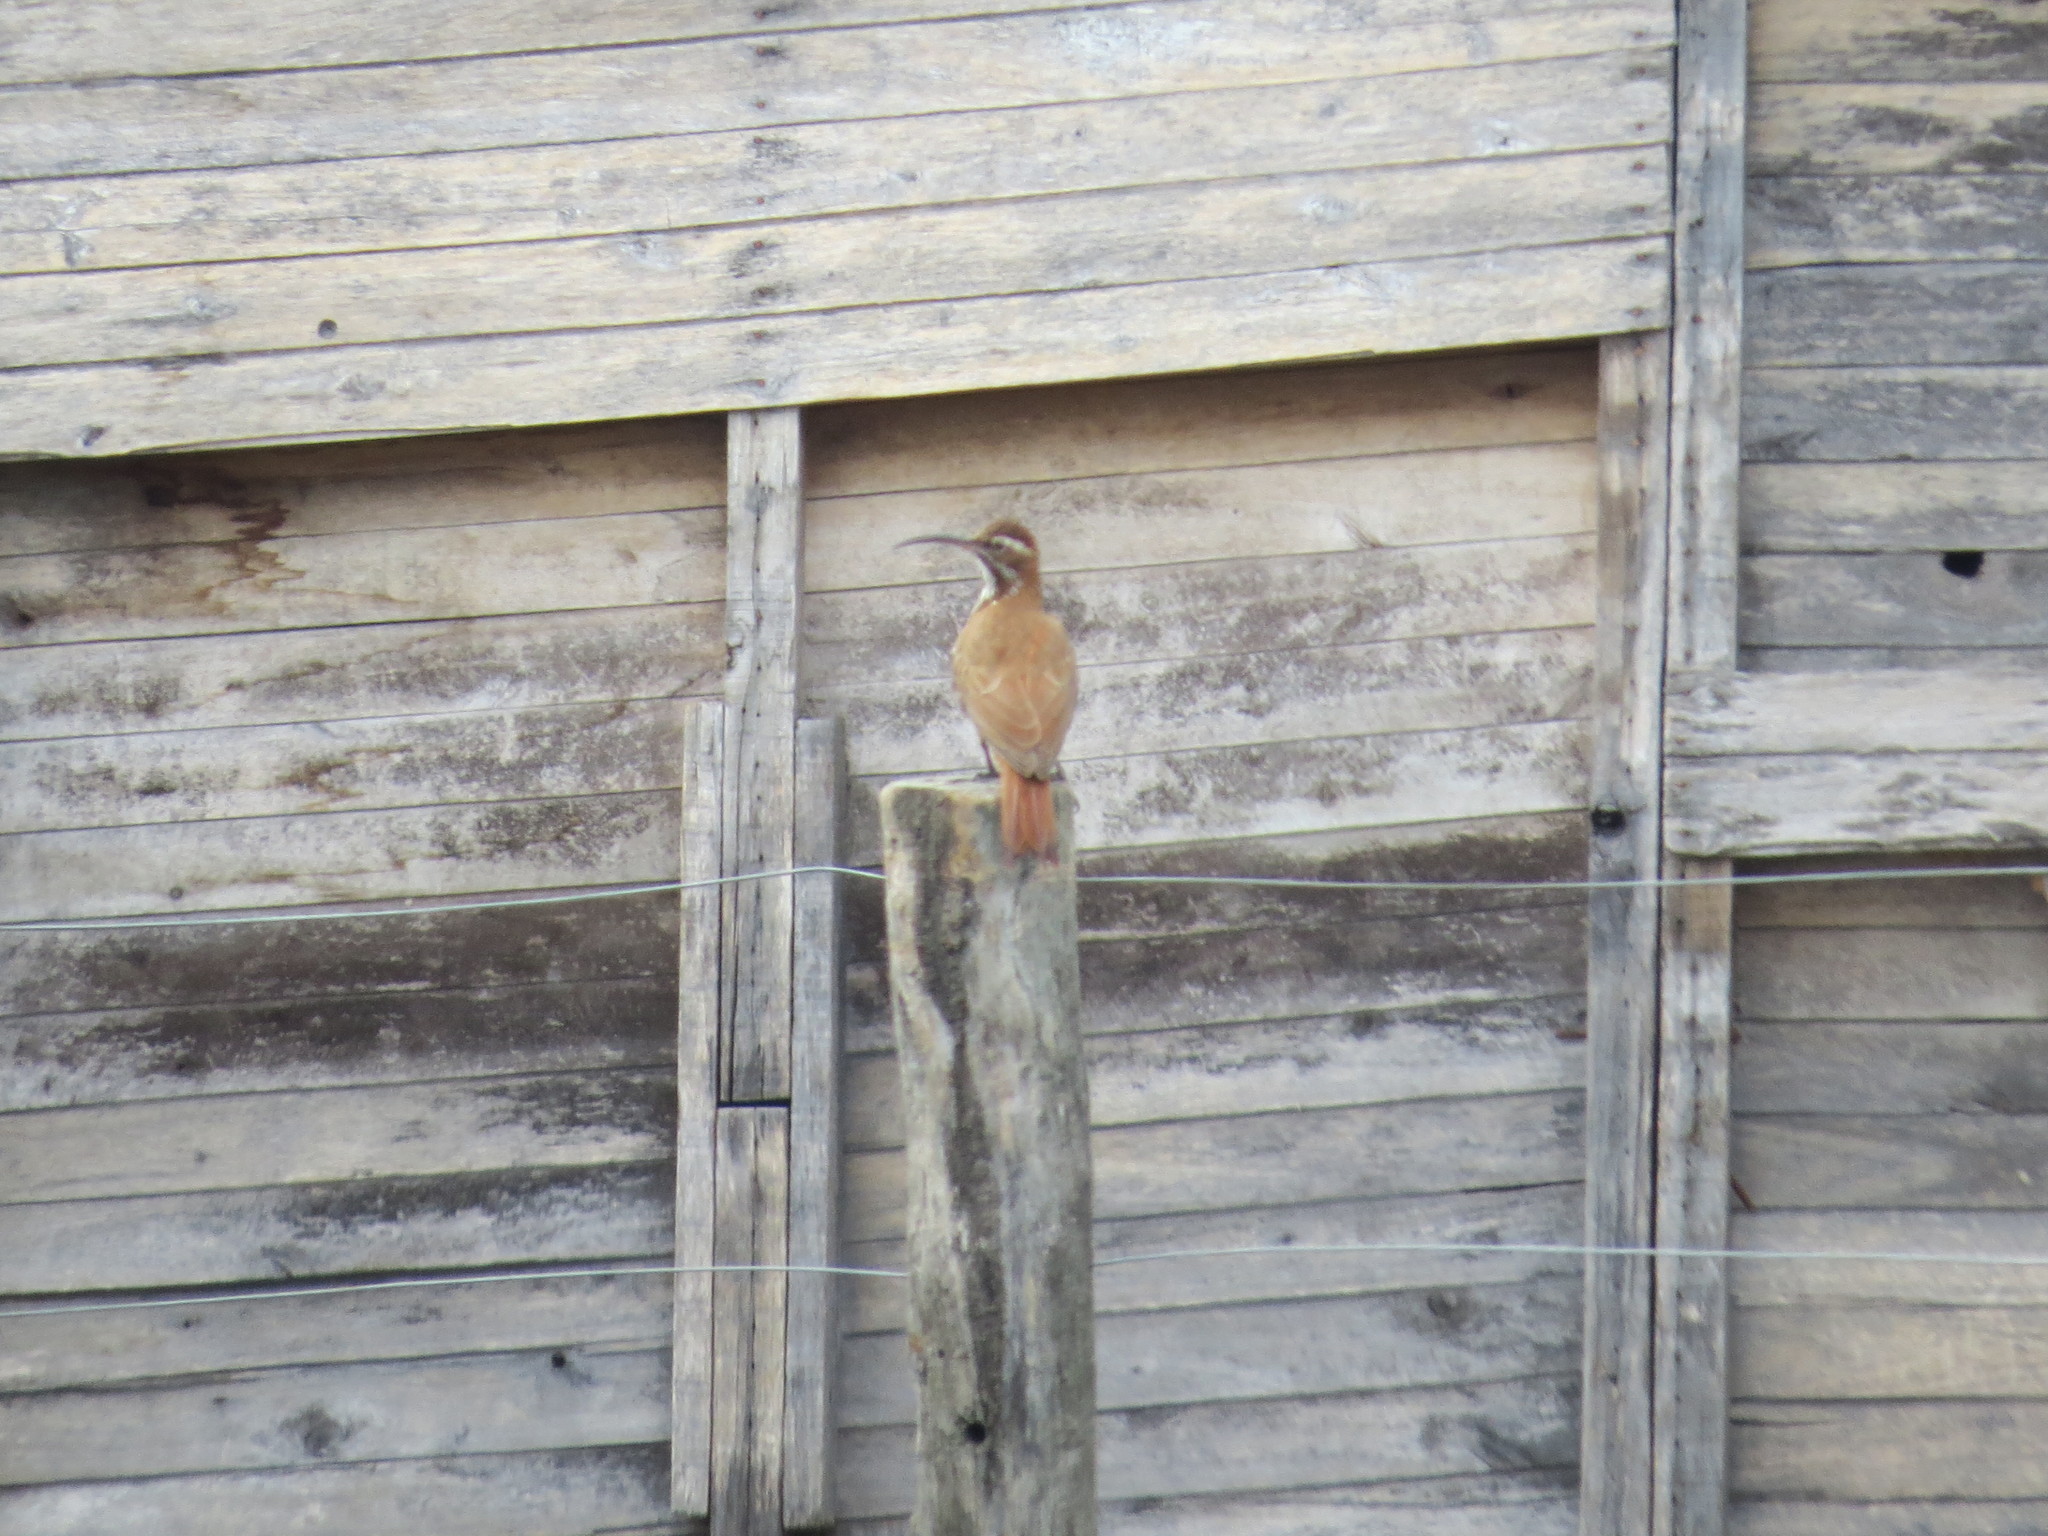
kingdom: Animalia
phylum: Chordata
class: Aves
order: Passeriformes
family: Furnariidae
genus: Drymornis
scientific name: Drymornis bridgesii
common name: Scimitar-billed woodcreeper
